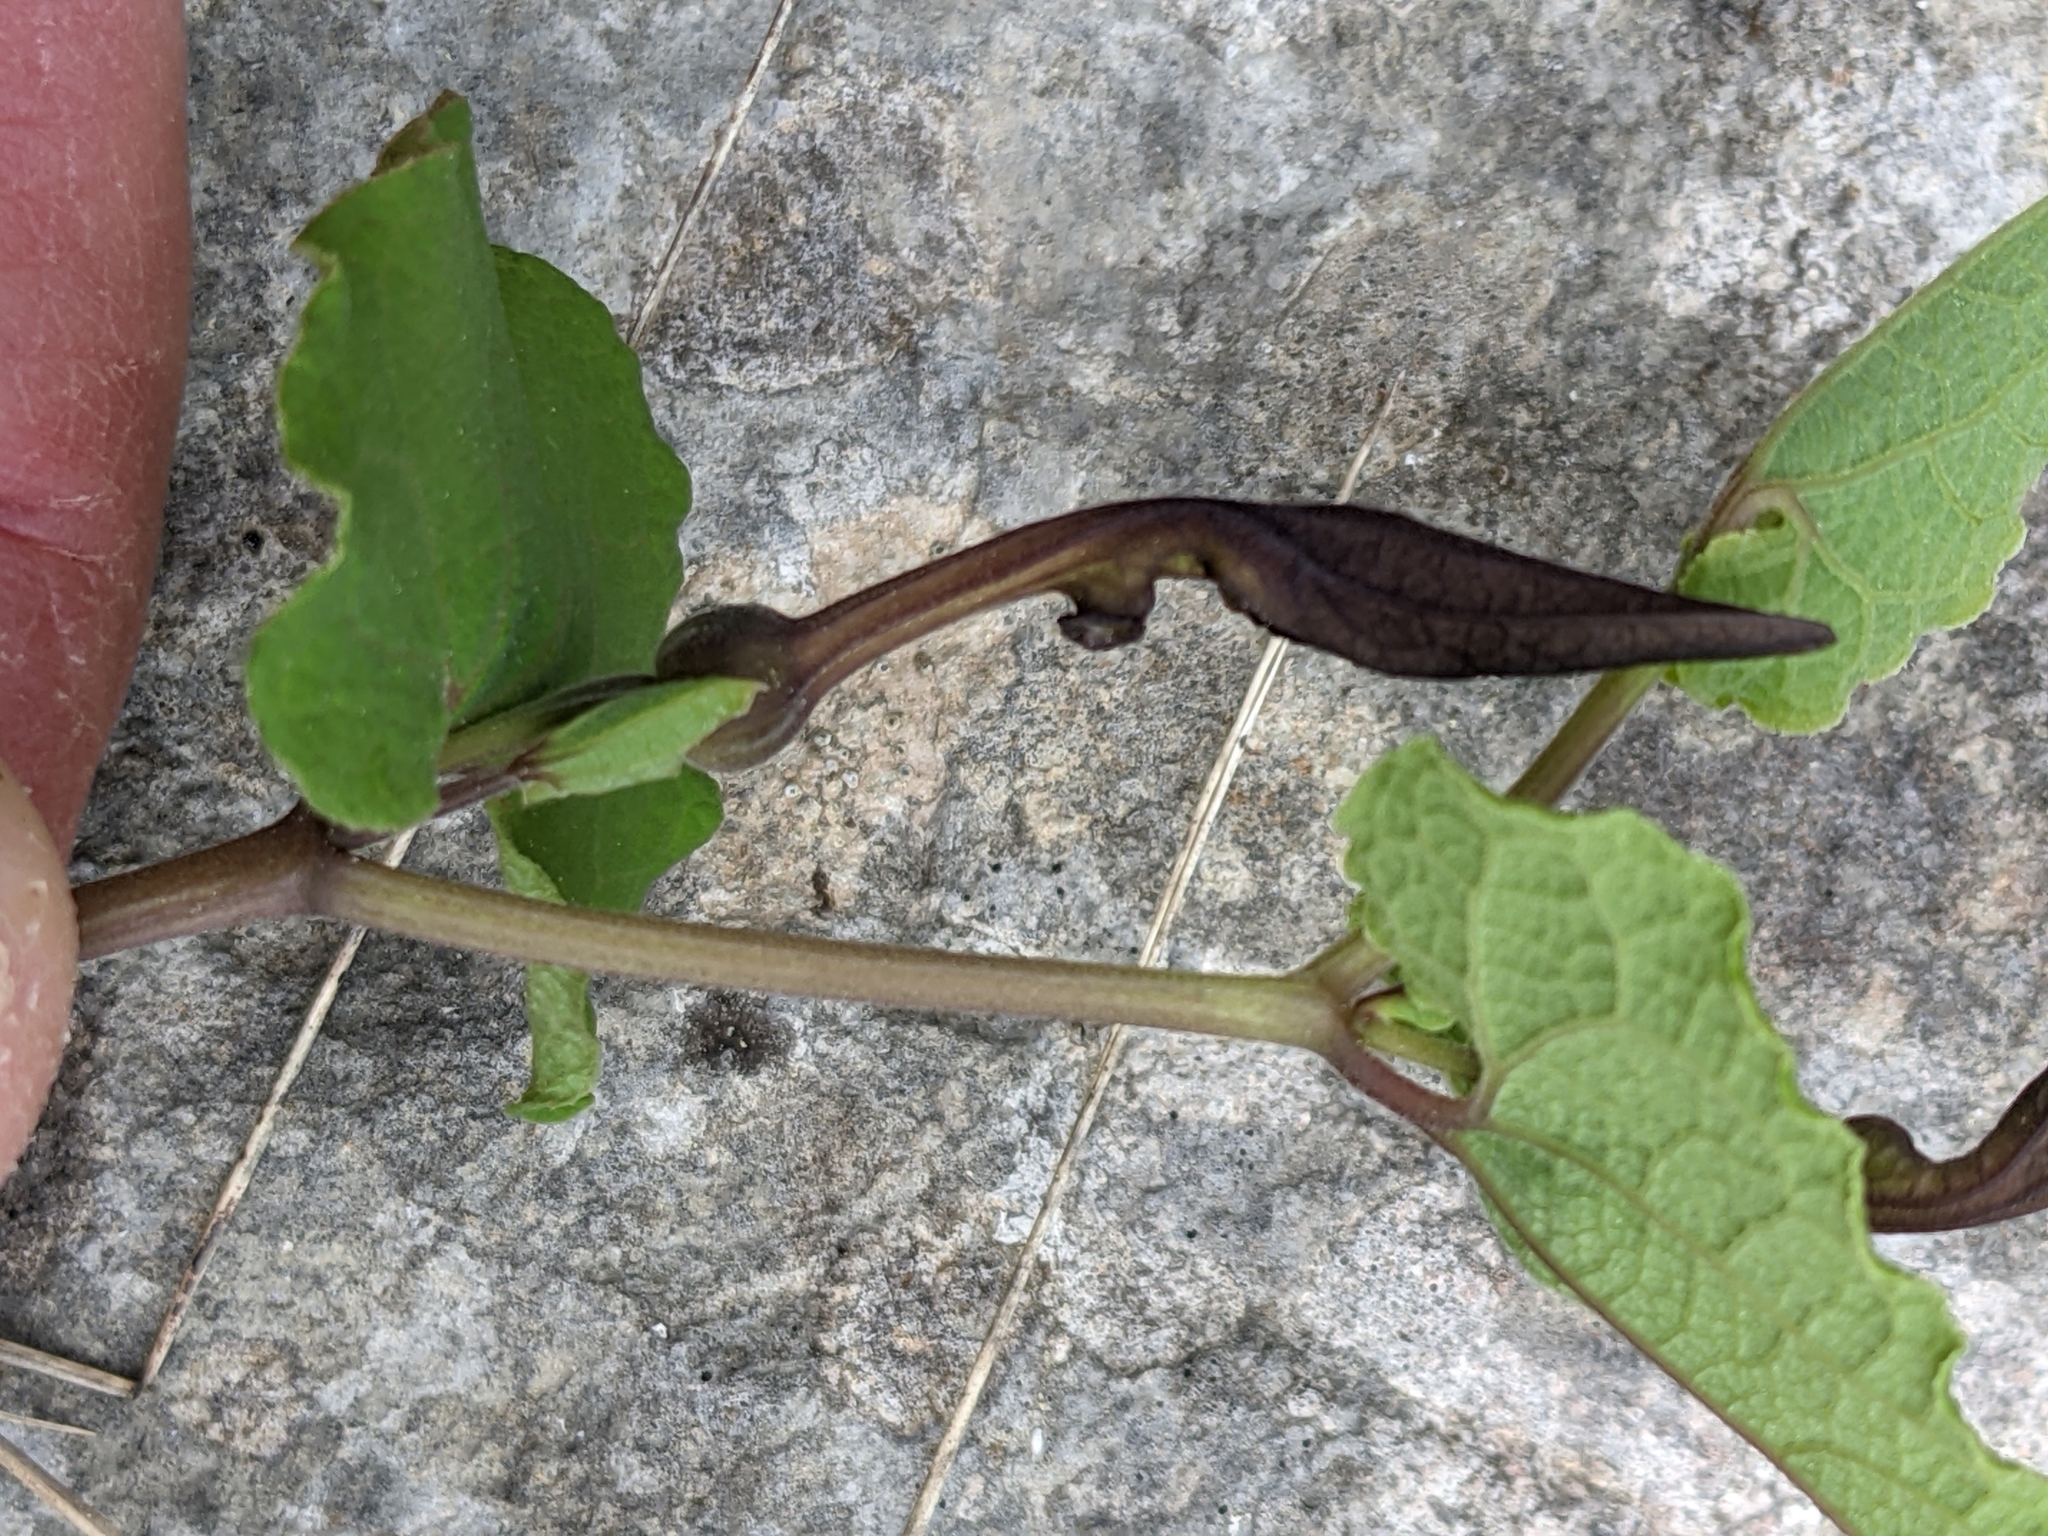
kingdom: Plantae
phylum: Tracheophyta
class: Magnoliopsida
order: Piperales
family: Aristolochiaceae
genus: Aristolochia
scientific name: Aristolochia pistolochia
